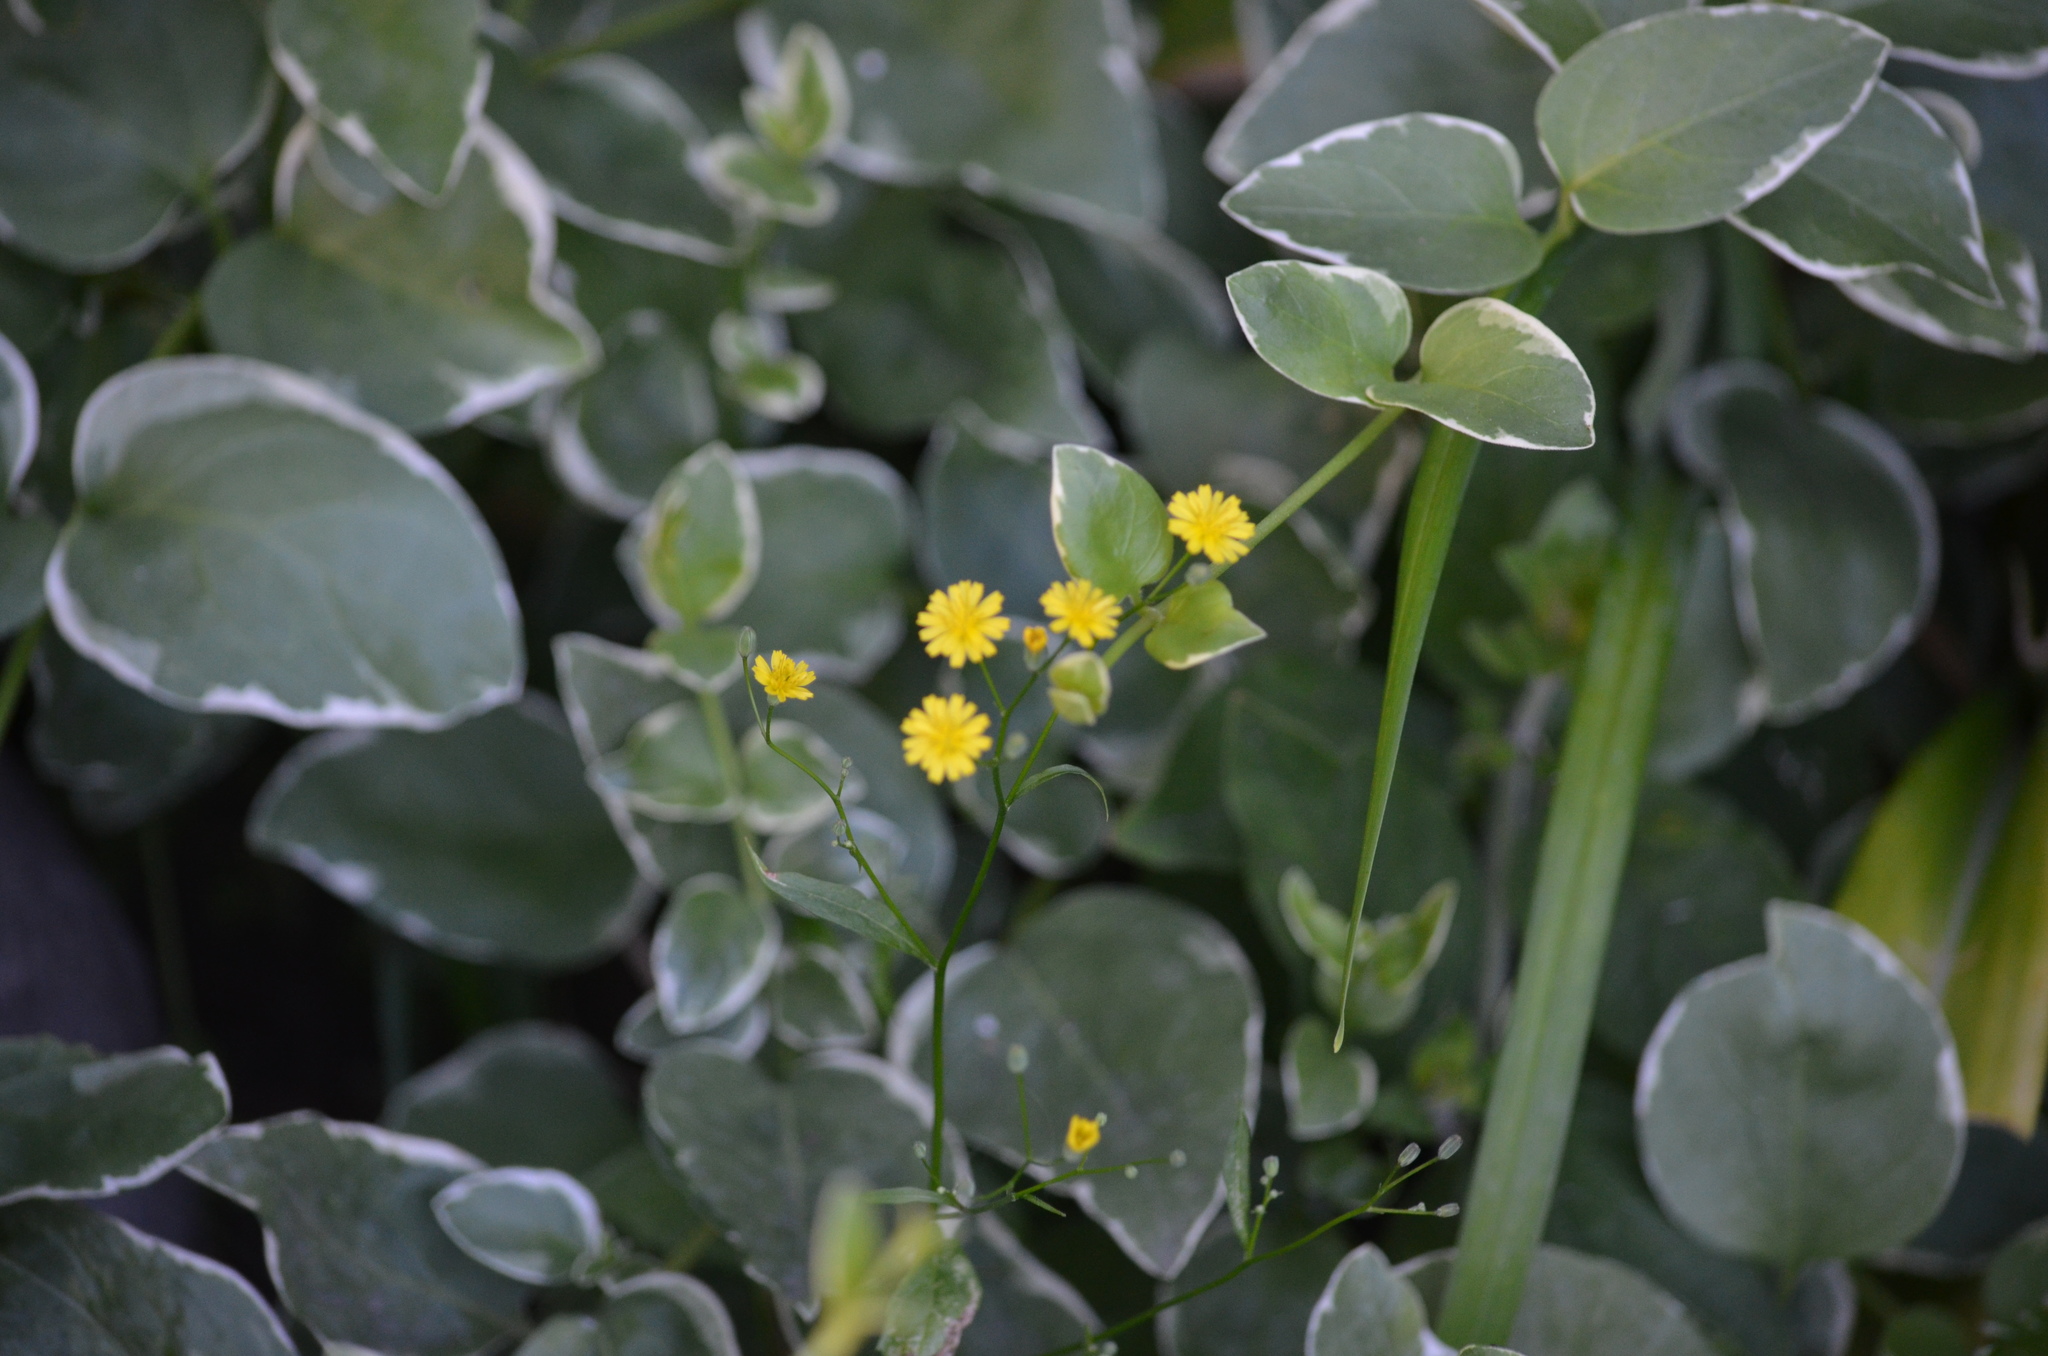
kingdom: Plantae
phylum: Tracheophyta
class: Magnoliopsida
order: Asterales
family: Asteraceae
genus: Lapsana
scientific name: Lapsana communis
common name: Nipplewort
